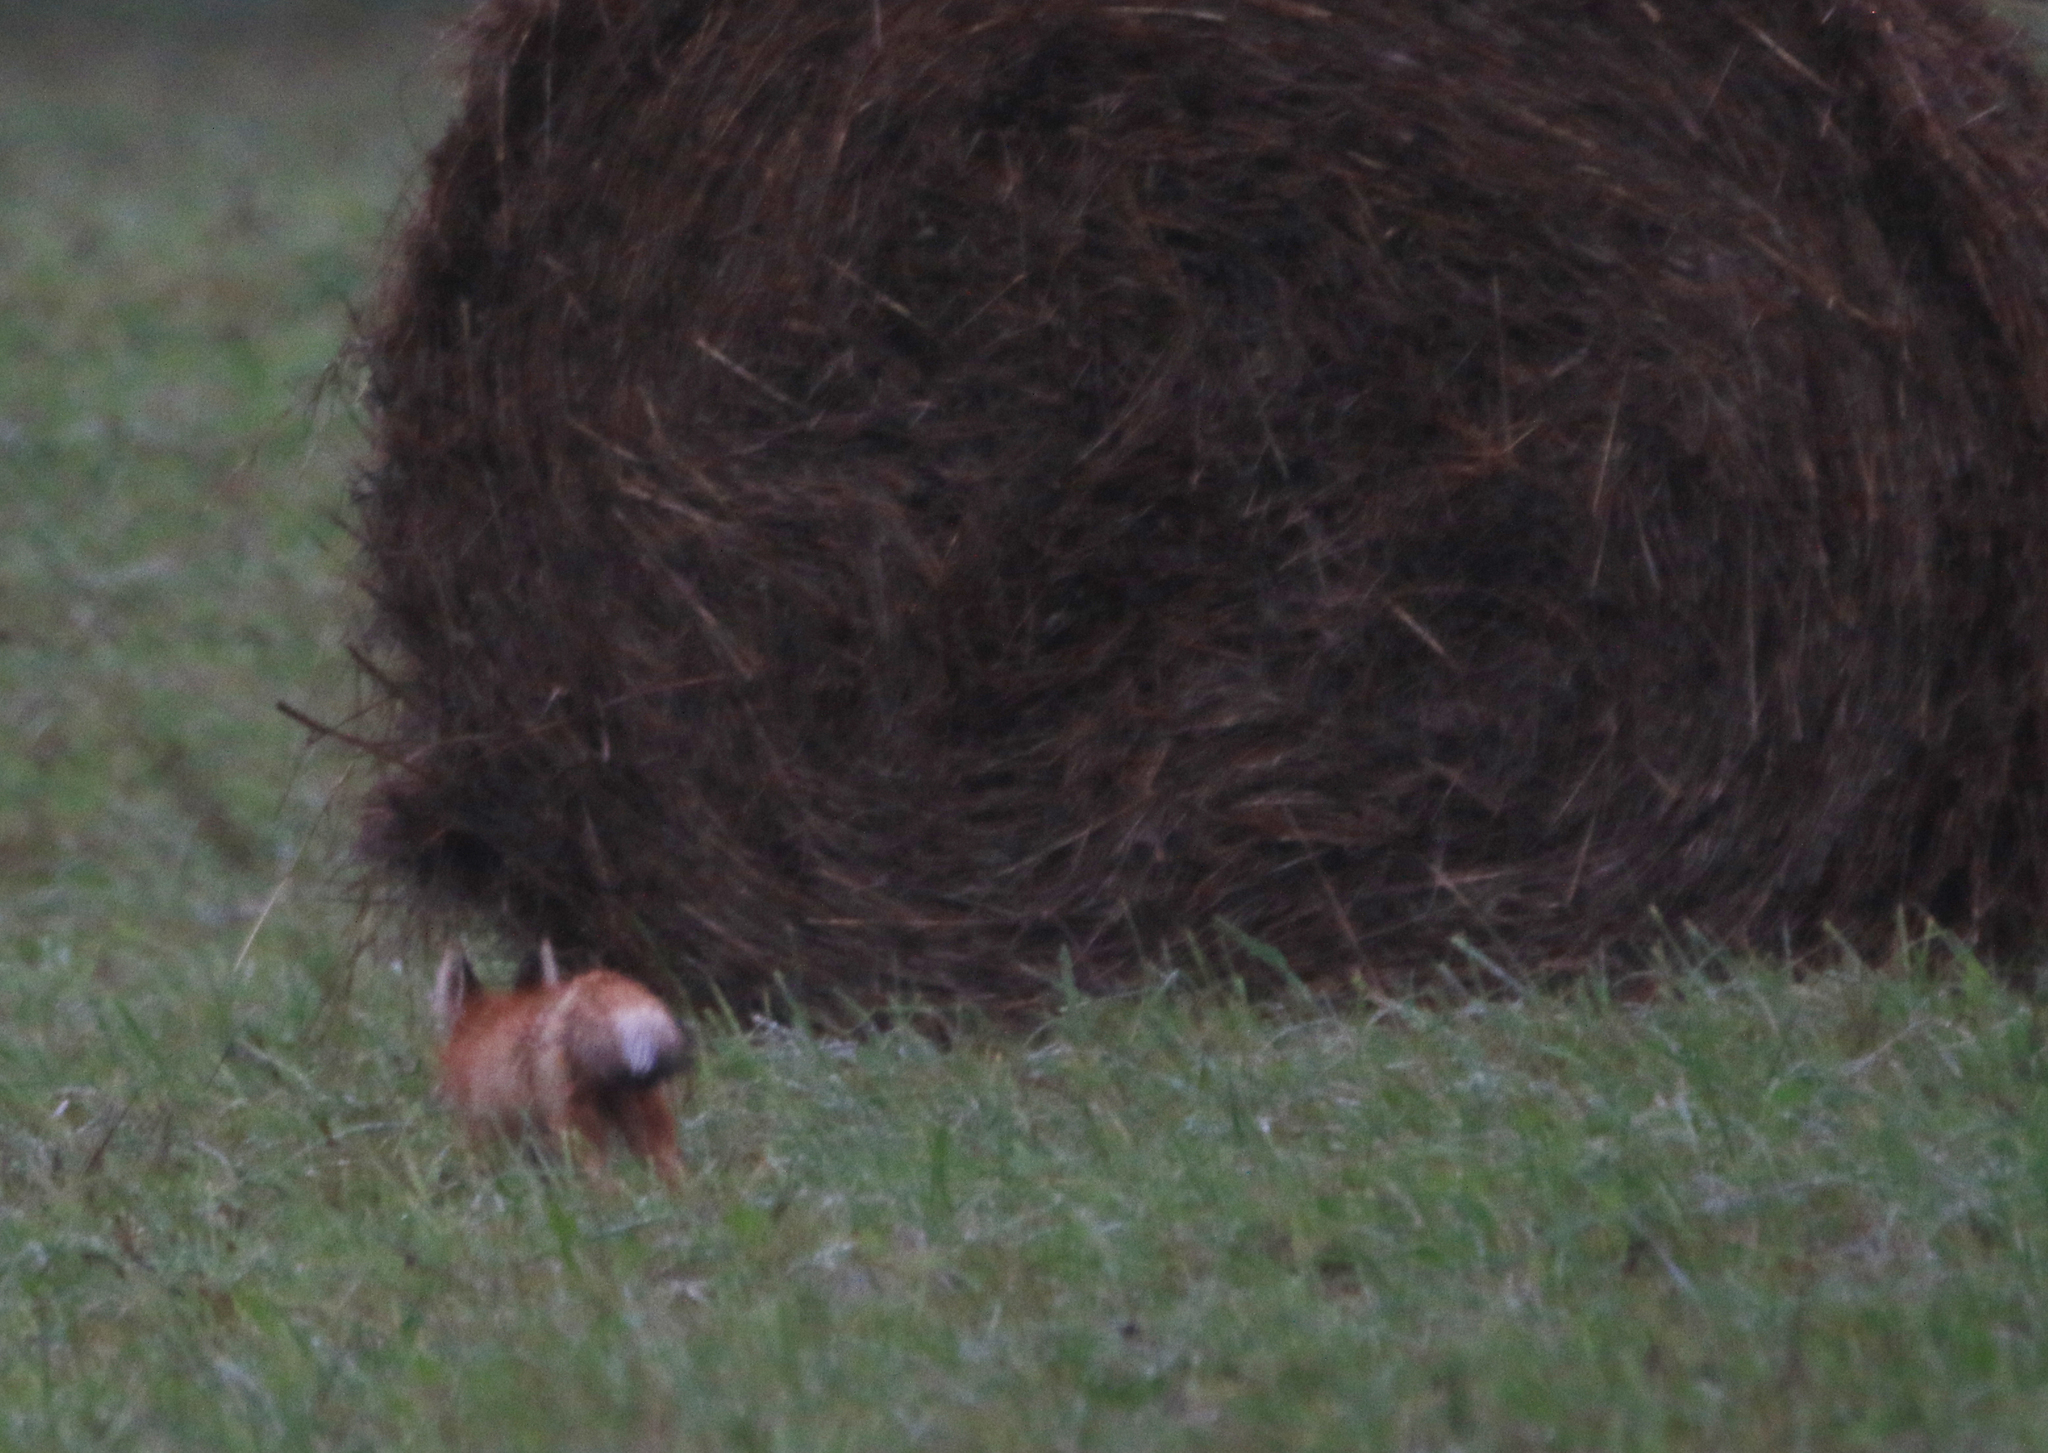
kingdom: Animalia
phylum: Chordata
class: Mammalia
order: Carnivora
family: Canidae
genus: Vulpes
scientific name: Vulpes vulpes
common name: Red fox
